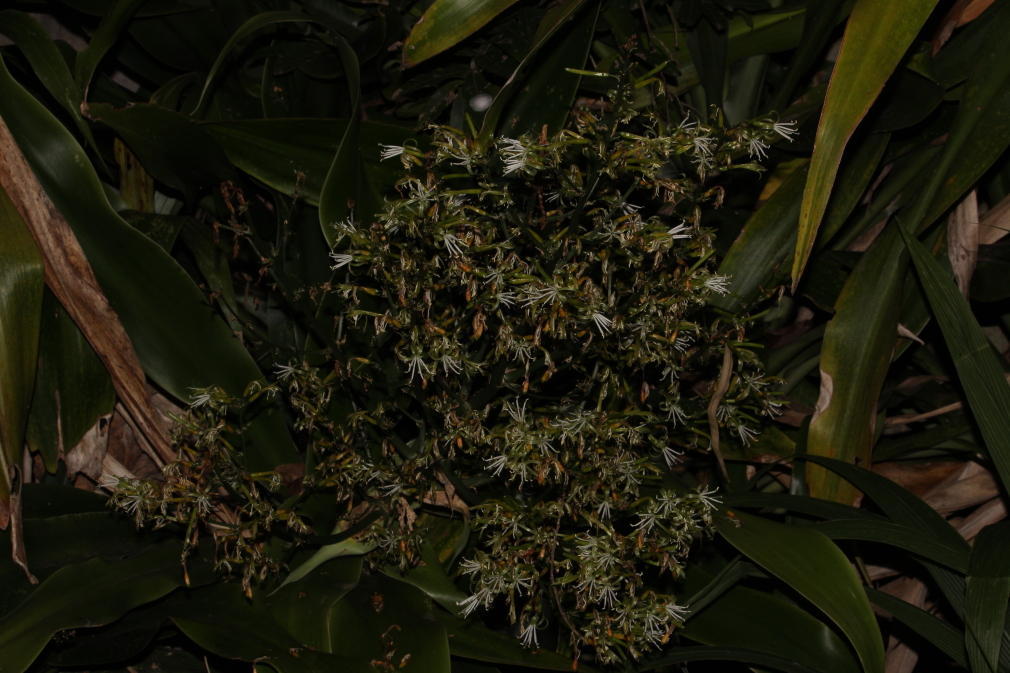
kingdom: Plantae
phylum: Tracheophyta
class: Liliopsida
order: Asparagales
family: Asparagaceae
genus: Dracaena
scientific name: Dracaena aletriformis
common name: Large-leaved dragon tree
